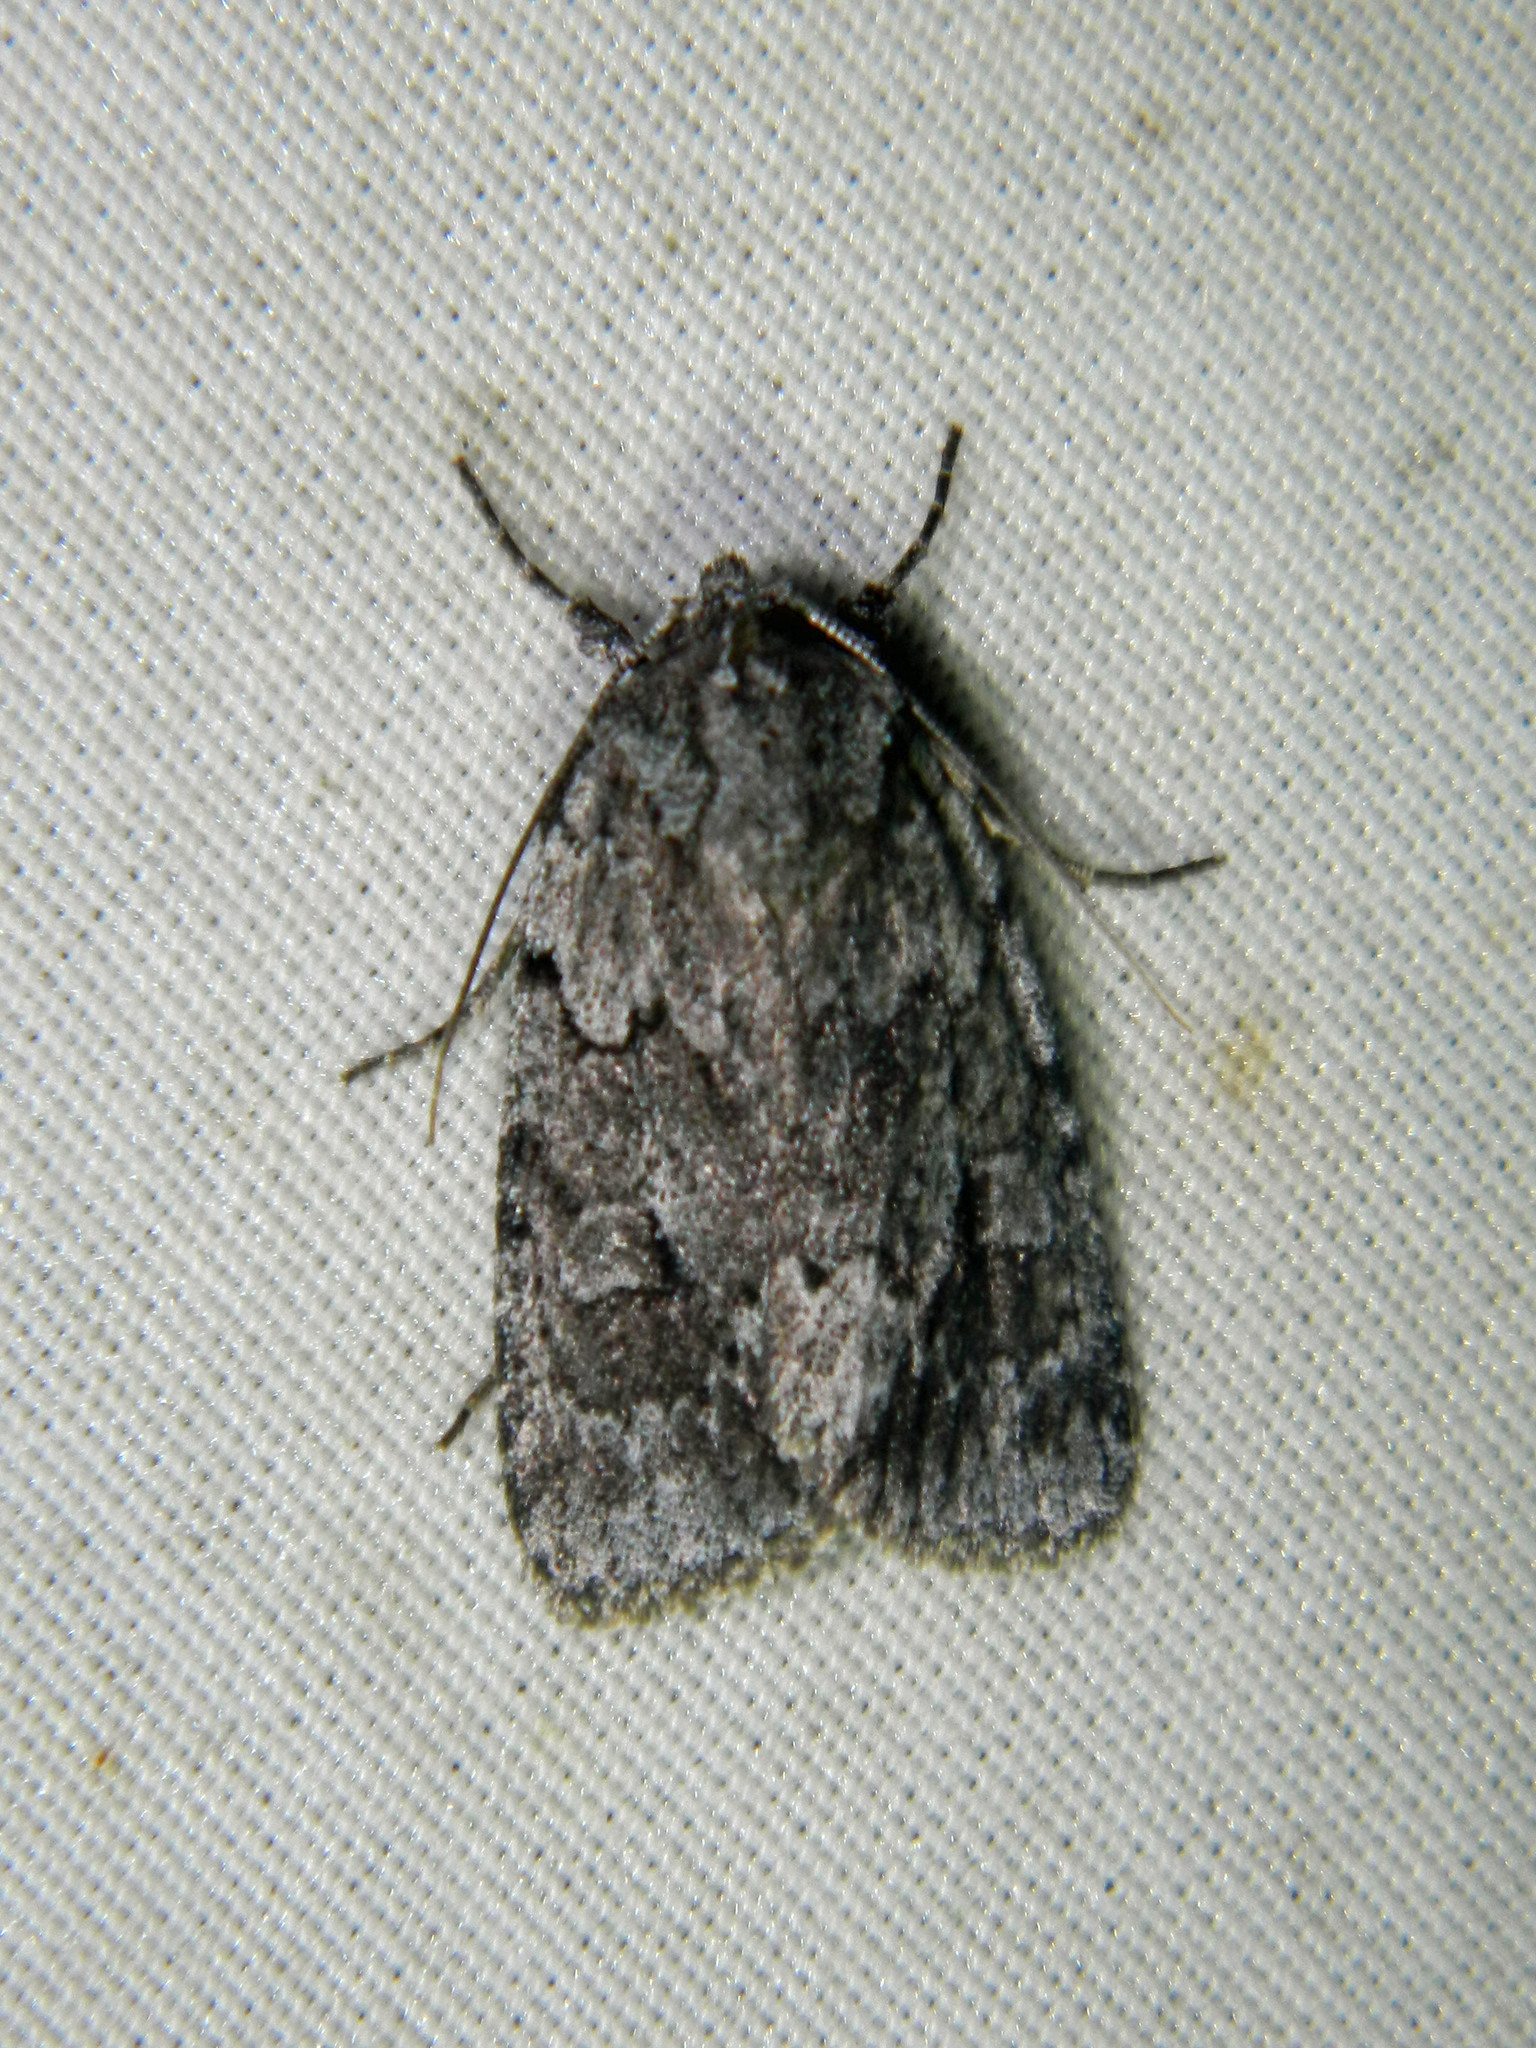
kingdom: Animalia
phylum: Arthropoda
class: Insecta
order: Lepidoptera
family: Noctuidae
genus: Sympistis
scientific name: Sympistis dentata
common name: Blueberry sallow
